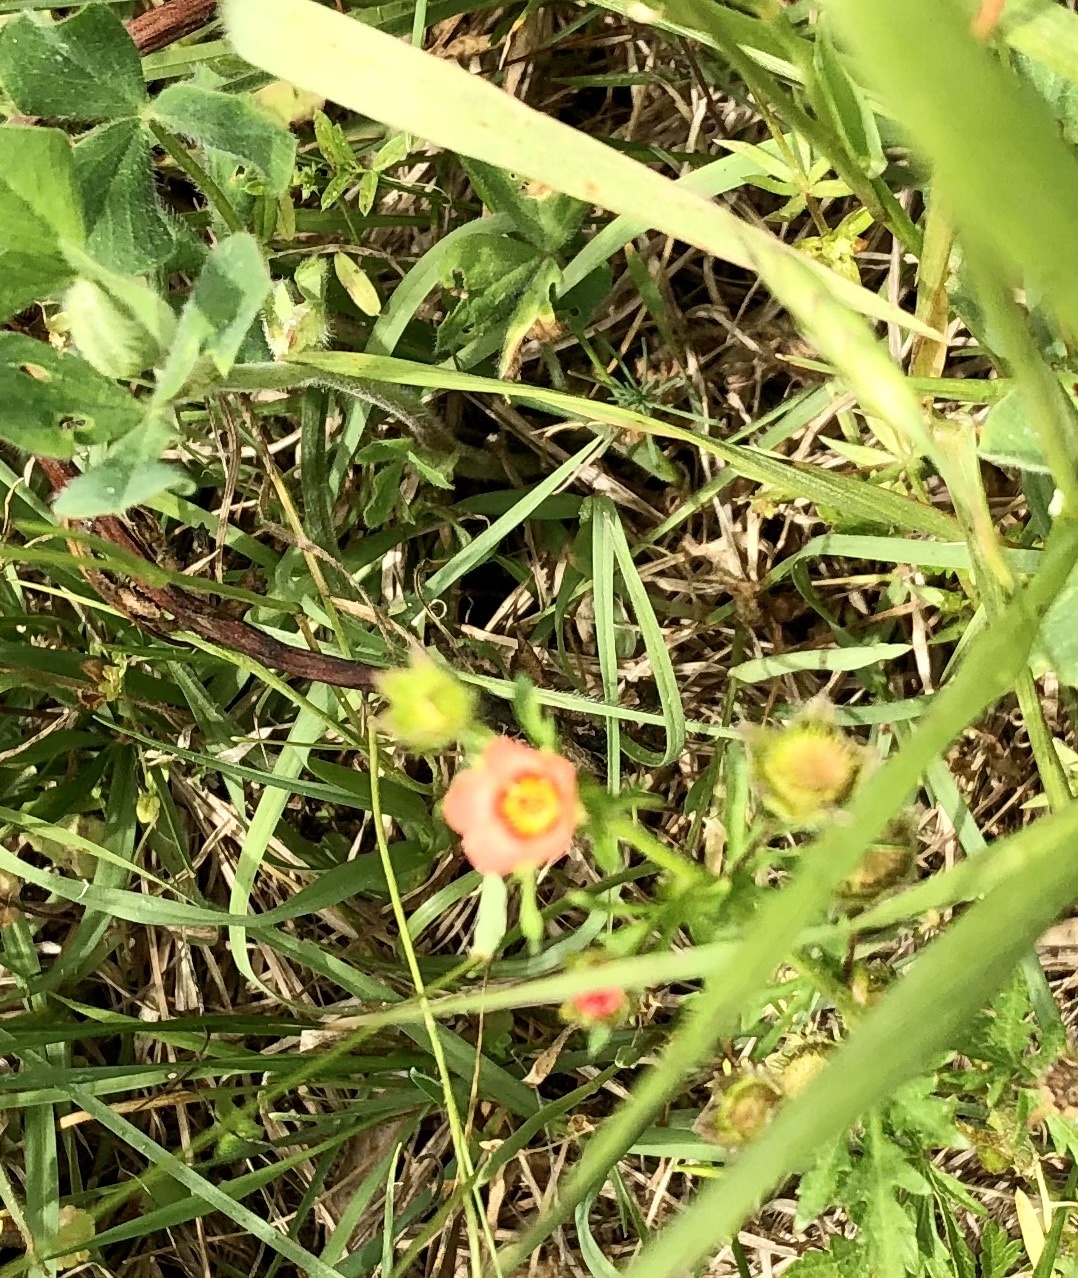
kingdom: Plantae
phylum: Tracheophyta
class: Magnoliopsida
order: Malvales
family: Malvaceae
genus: Modiola
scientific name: Modiola caroliniana
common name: Carolina bristlemallow
